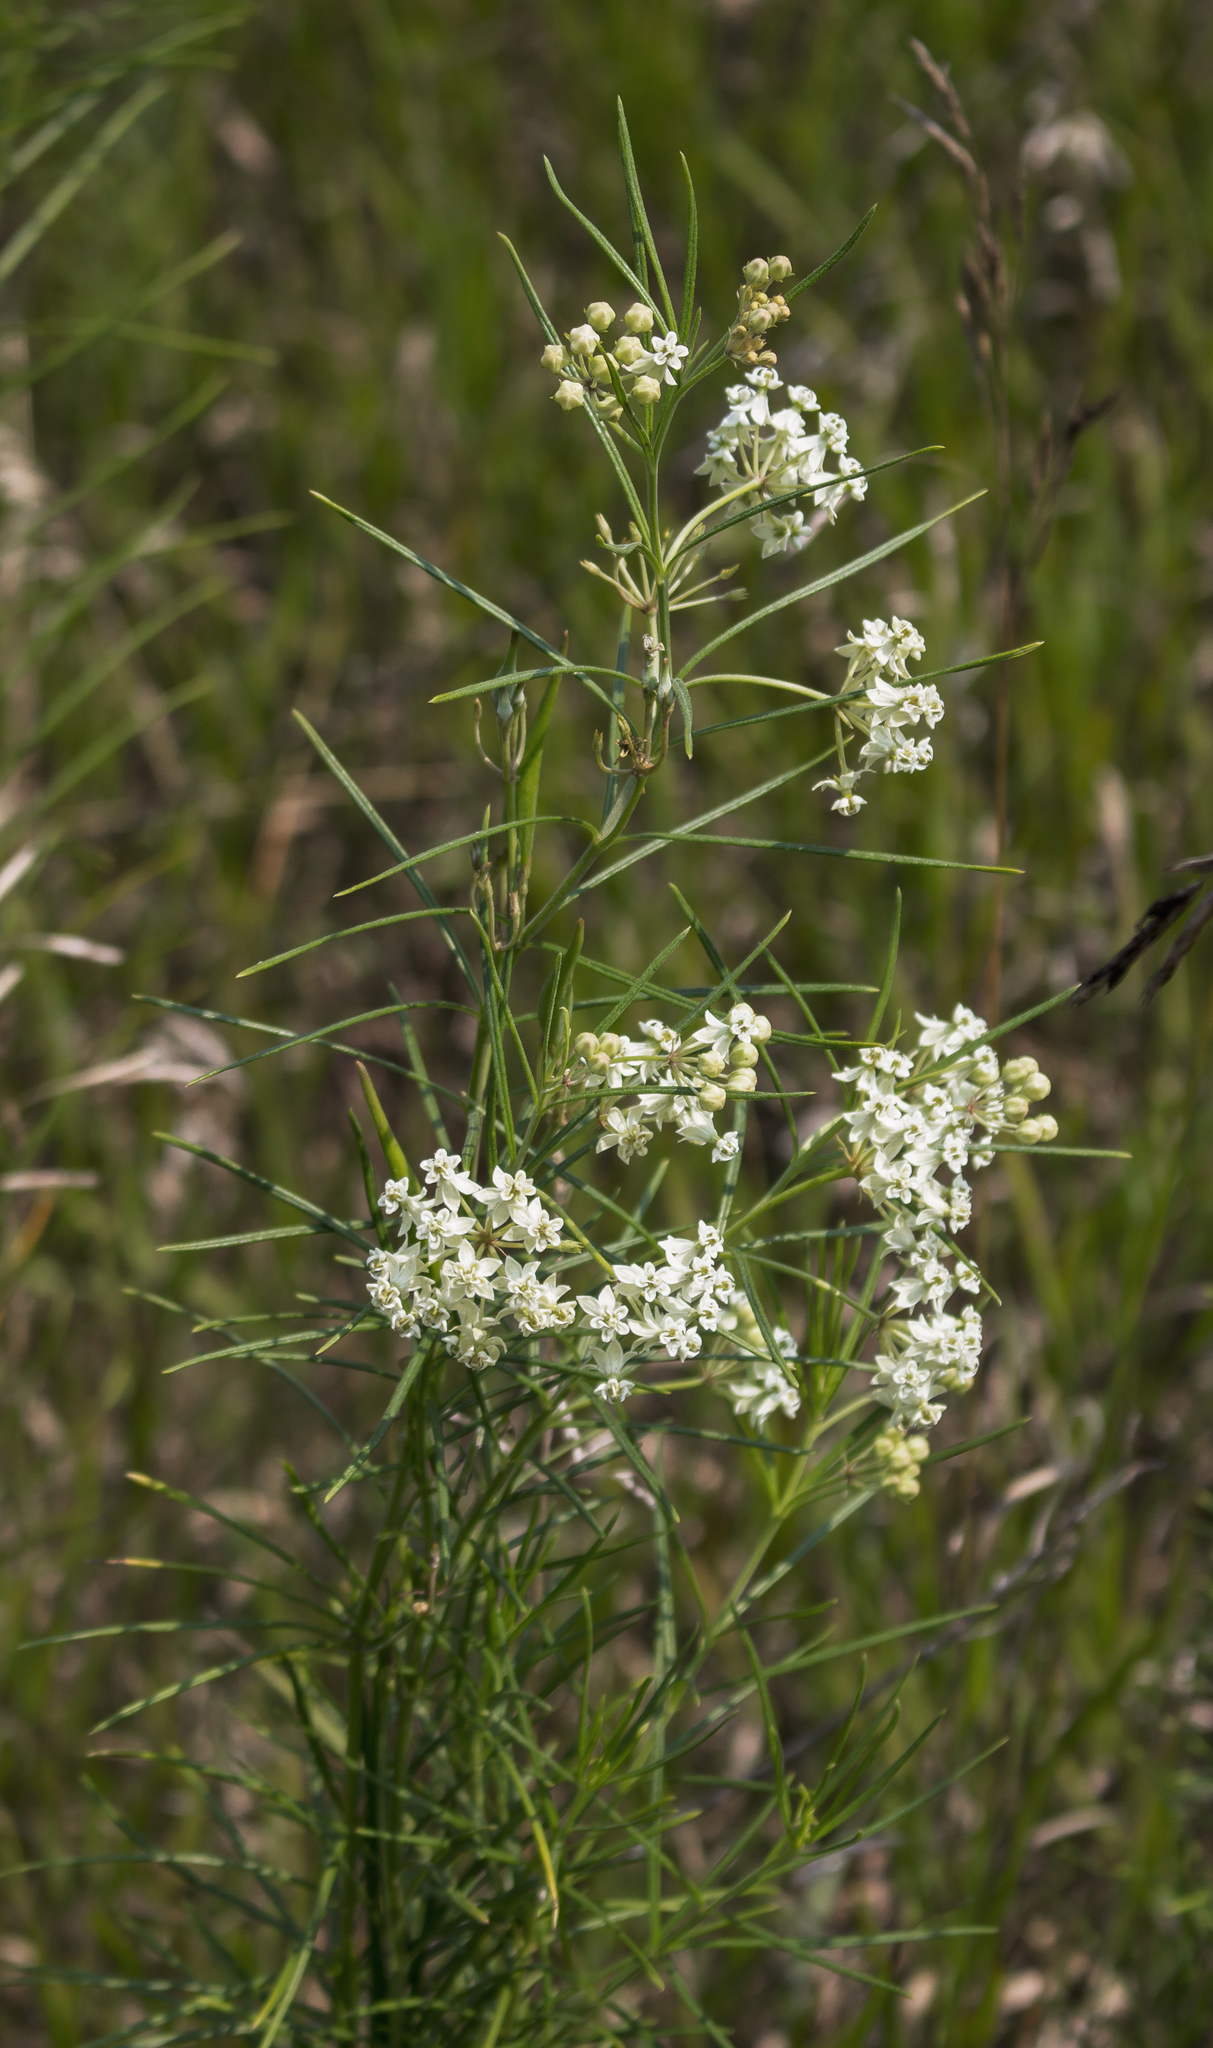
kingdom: Plantae
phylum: Tracheophyta
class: Magnoliopsida
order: Gentianales
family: Apocynaceae
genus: Asclepias
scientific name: Asclepias verticillata
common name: Eastern whorled milkweed
